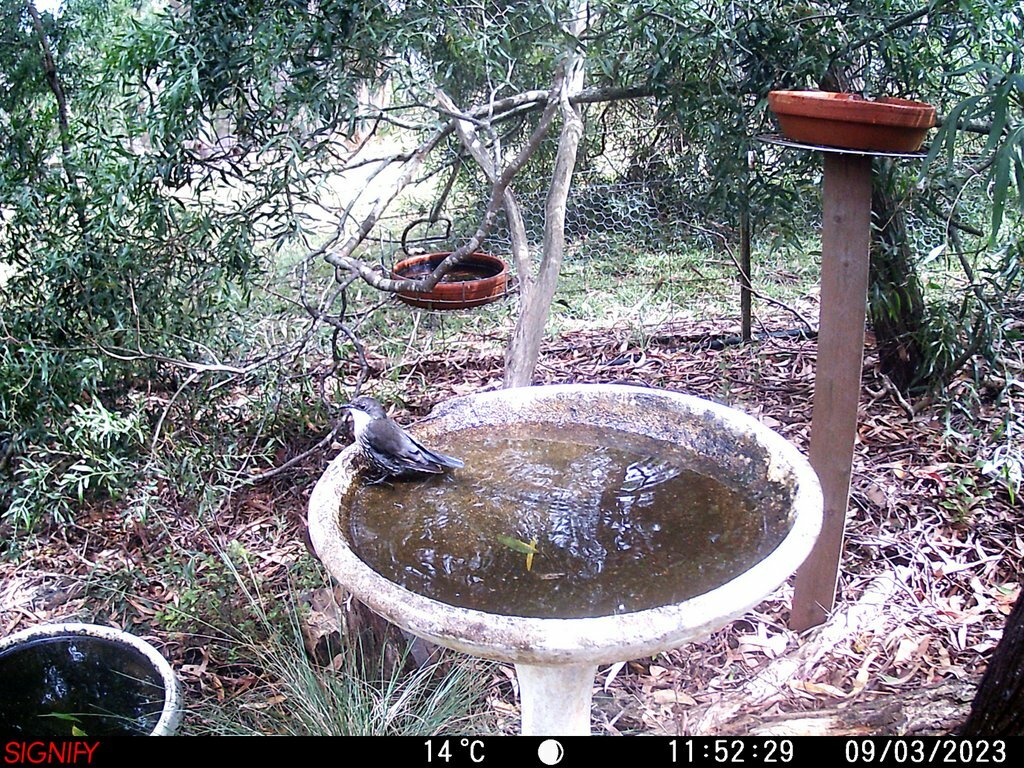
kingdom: Animalia
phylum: Chordata
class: Aves
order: Passeriformes
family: Climacteridae
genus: Cormobates
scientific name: Cormobates leucophaea
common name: White-throated treecreeper
